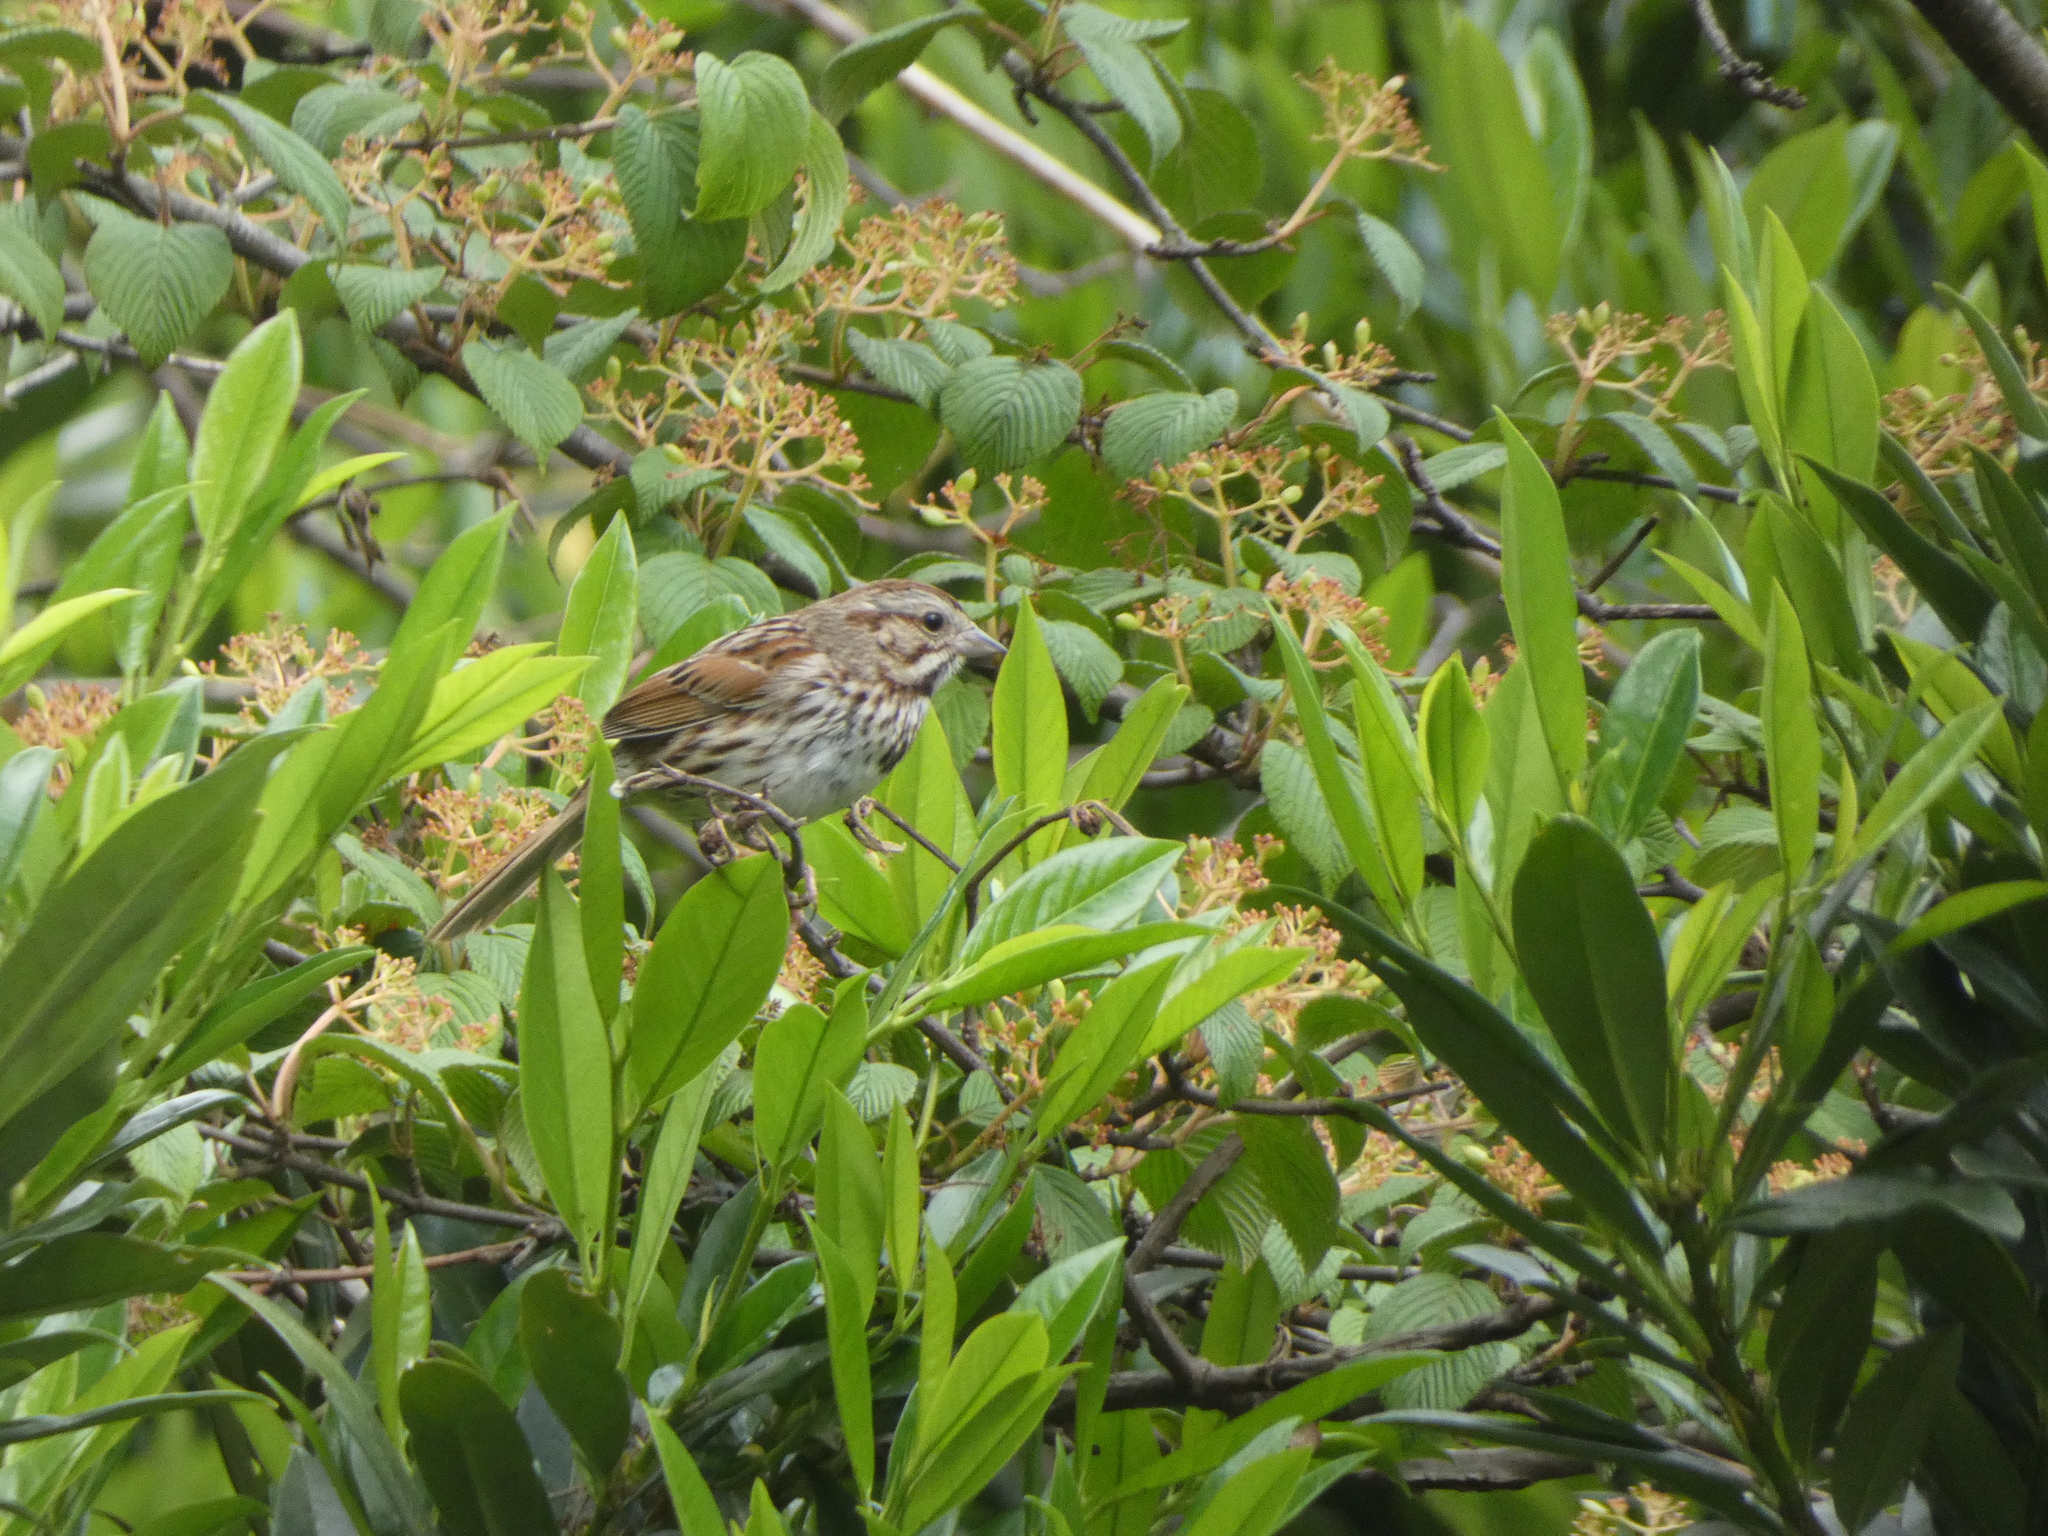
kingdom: Animalia
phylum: Chordata
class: Aves
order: Passeriformes
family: Passerellidae
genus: Melospiza
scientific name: Melospiza melodia
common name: Song sparrow
